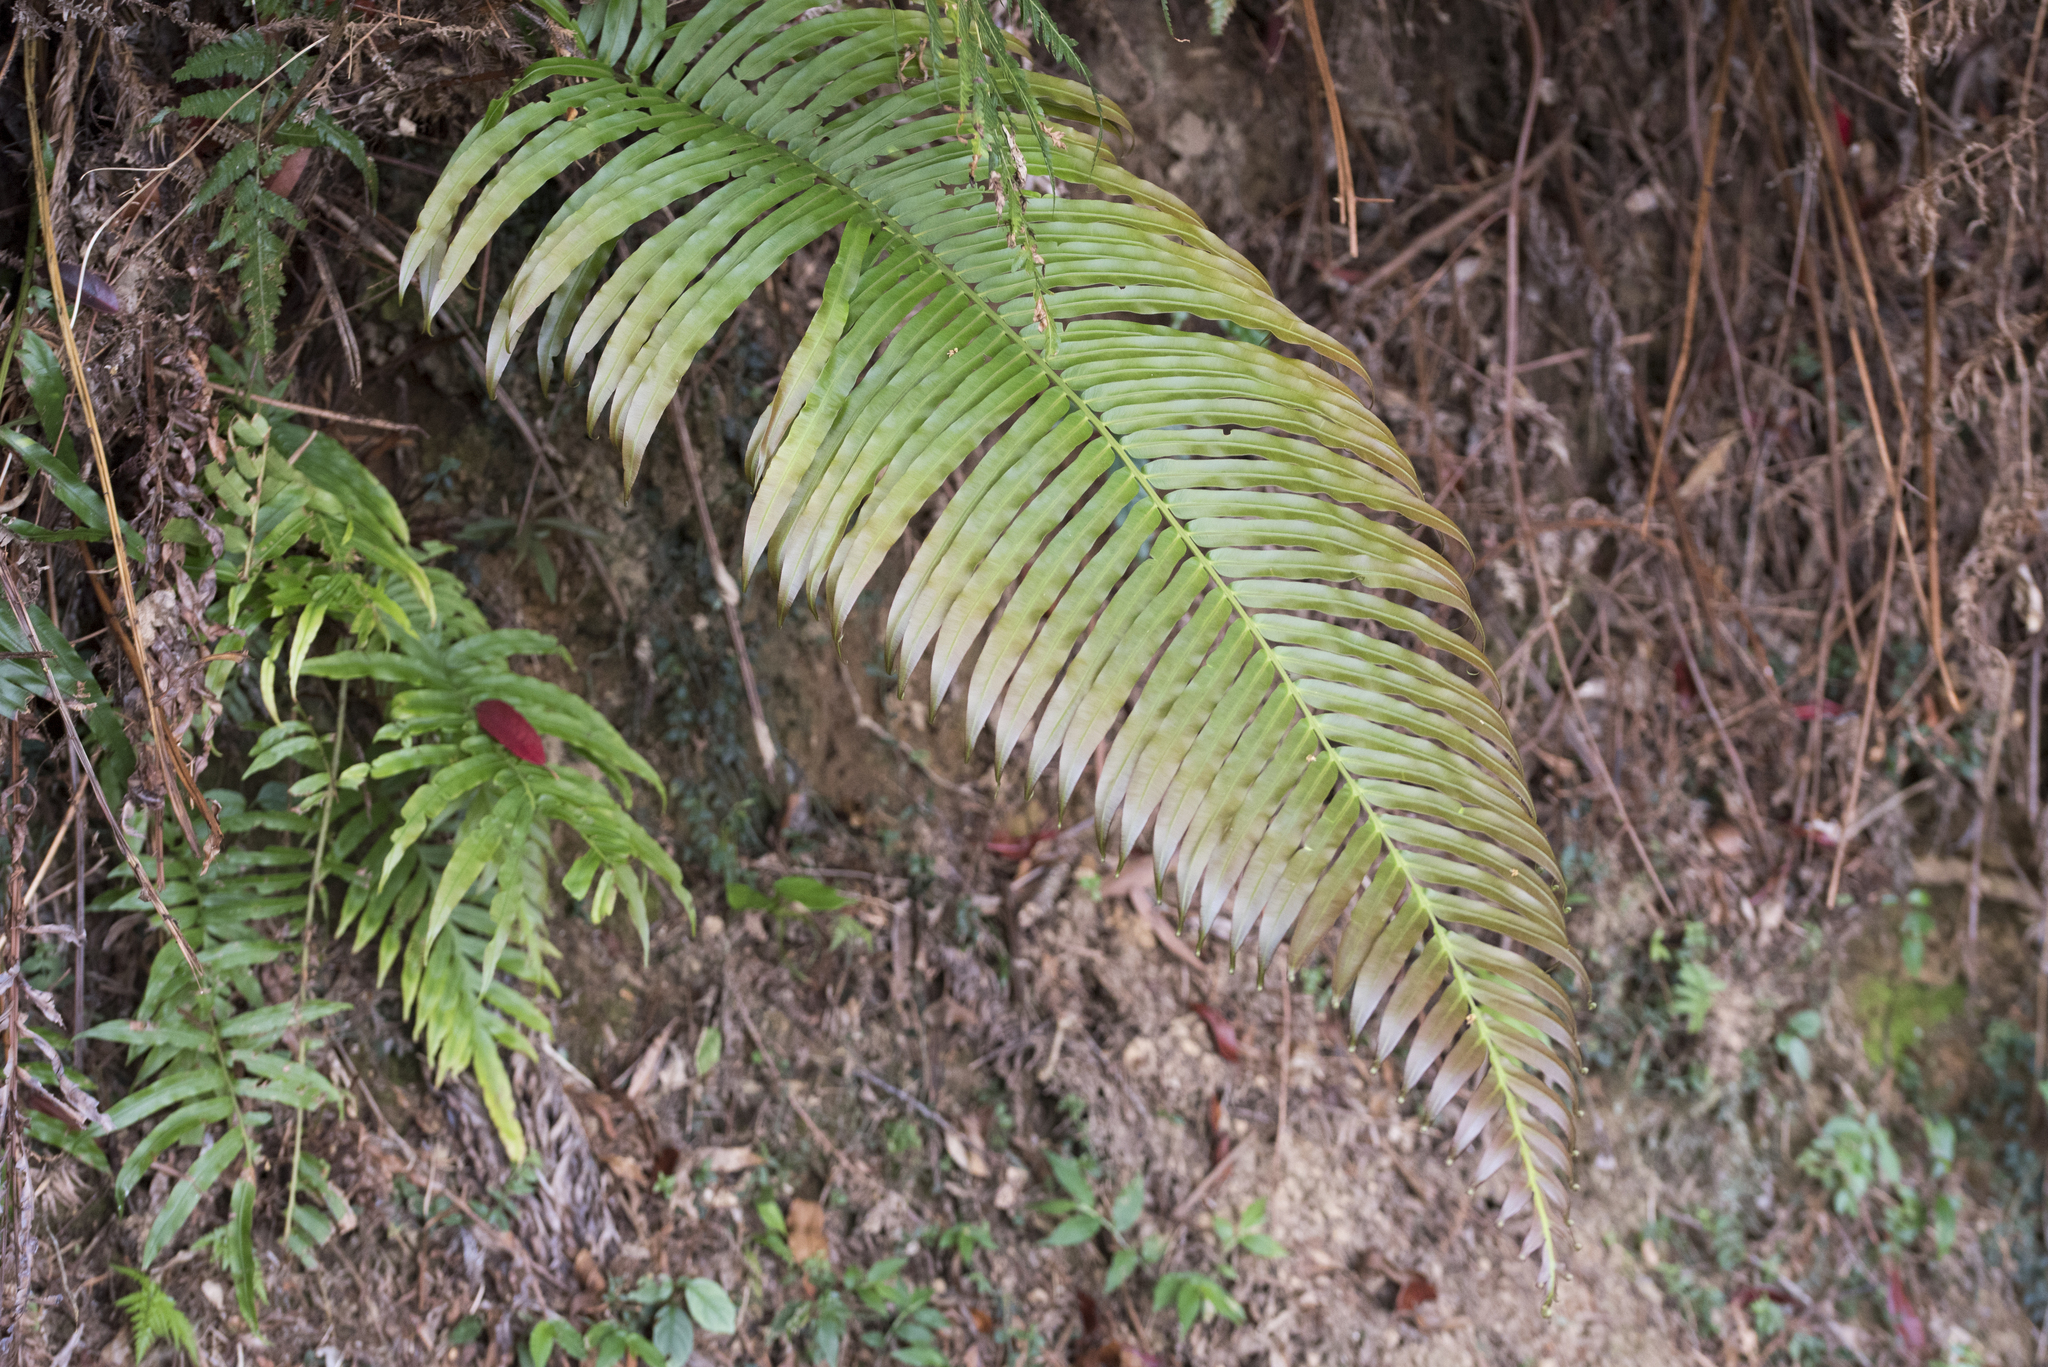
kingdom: Plantae
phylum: Tracheophyta
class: Polypodiopsida
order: Polypodiales
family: Blechnaceae
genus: Blechnopsis
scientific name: Blechnopsis orientalis
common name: Oriental blechnum
